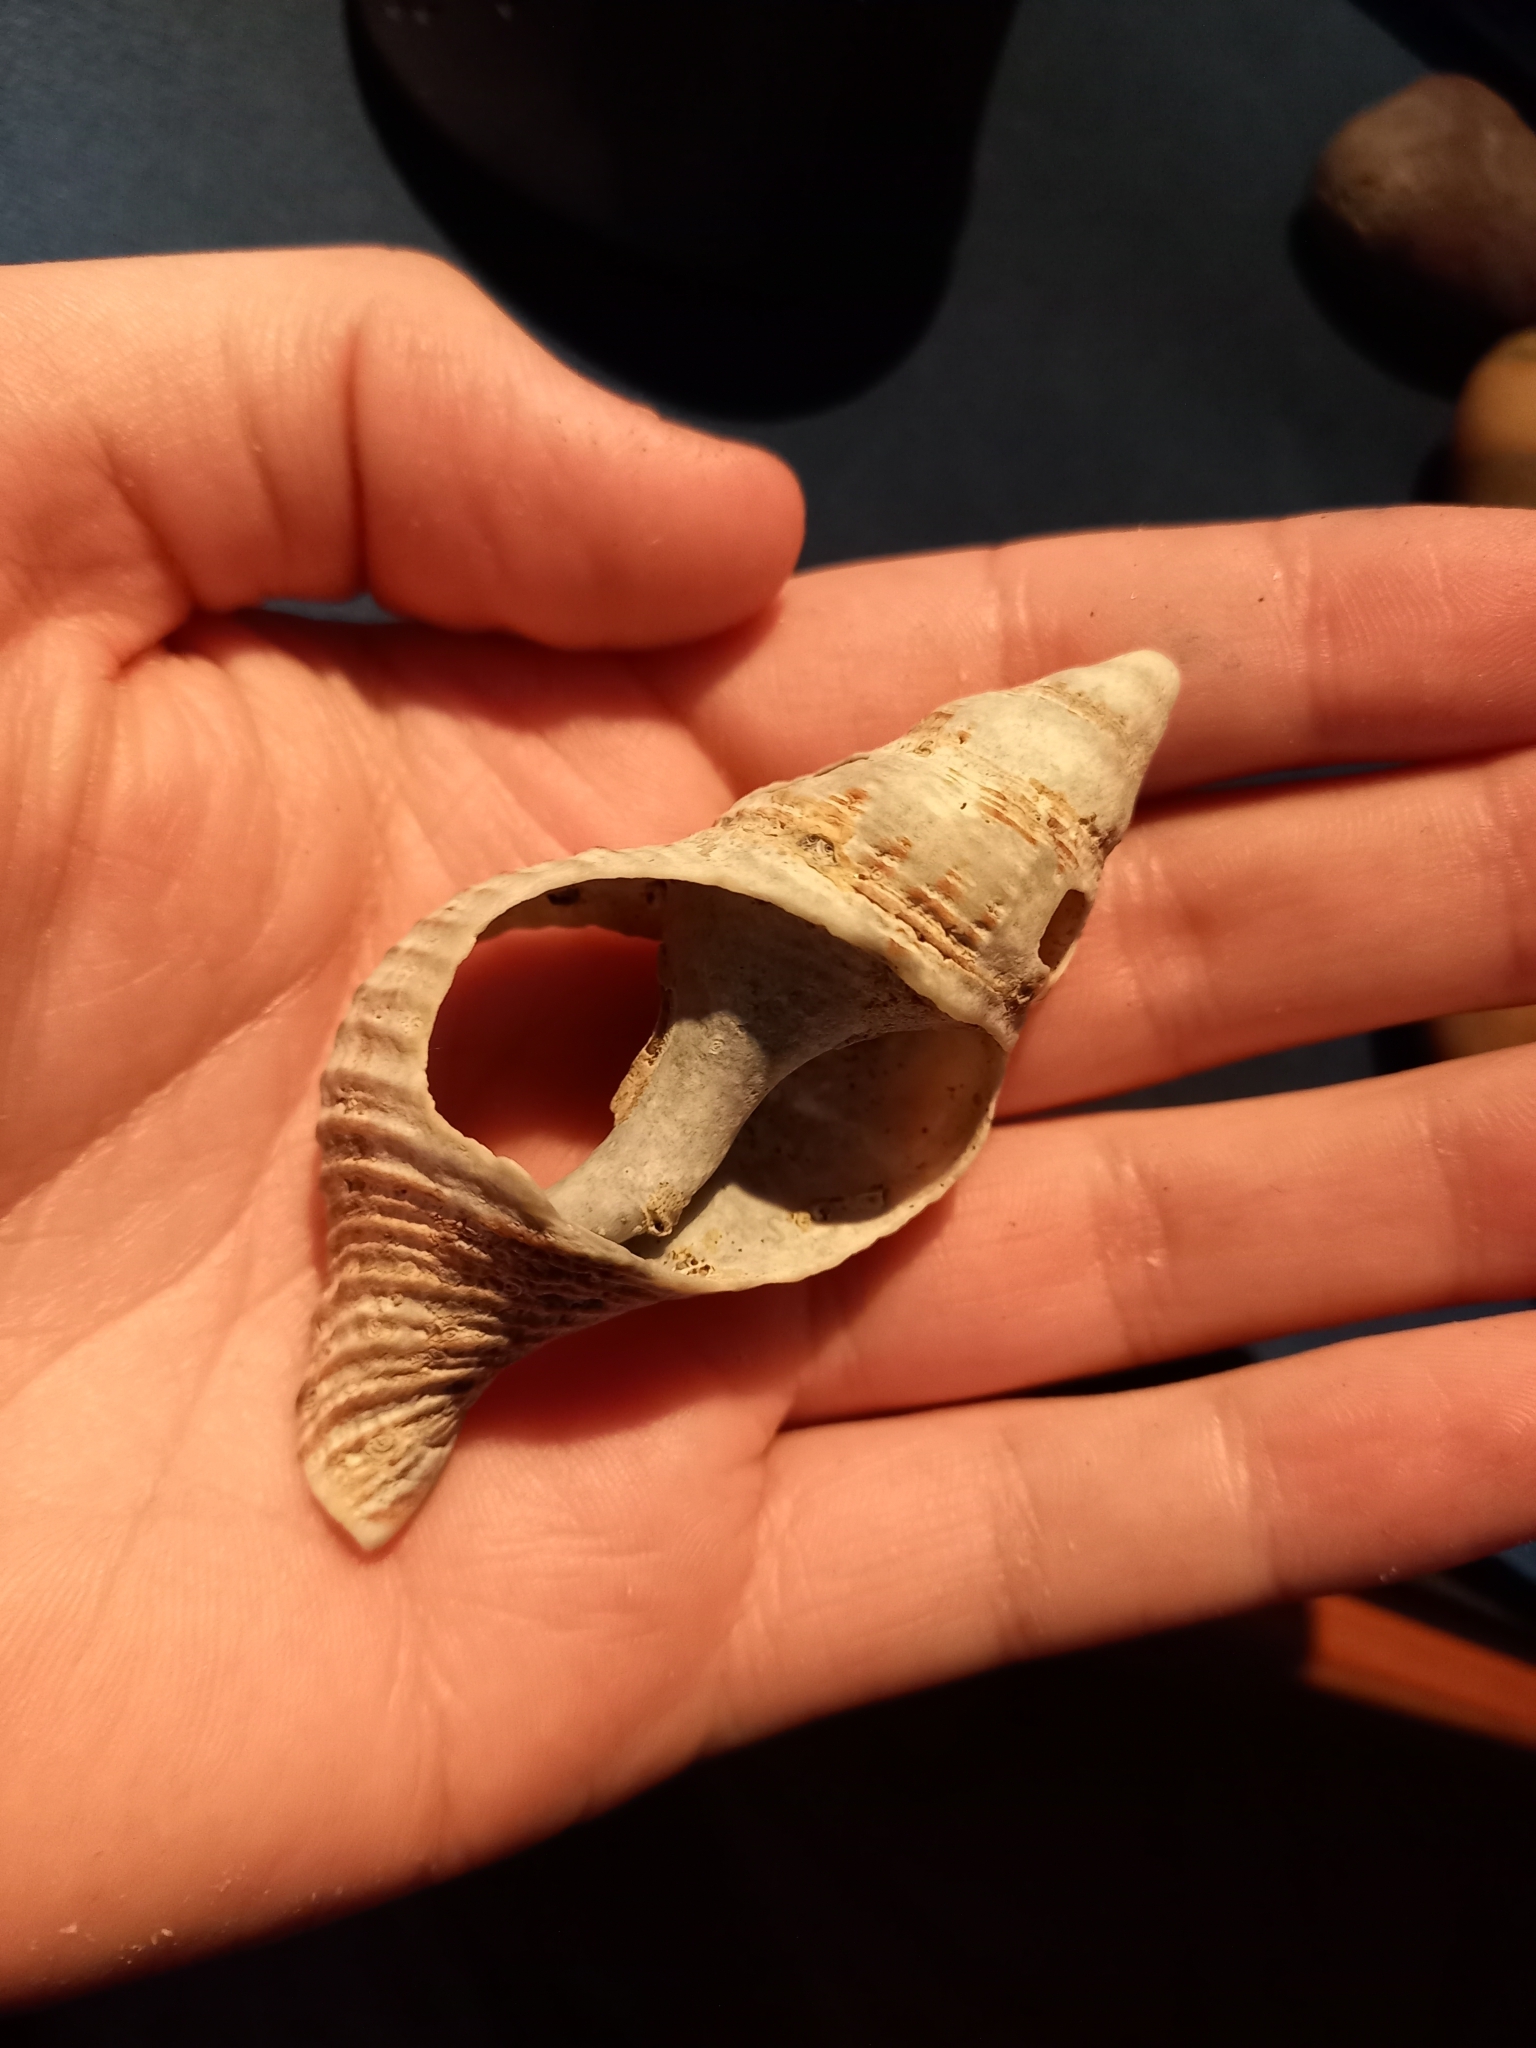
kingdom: Animalia
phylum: Mollusca
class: Gastropoda
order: Neogastropoda
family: Austrosiphonidae
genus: Penion
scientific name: Penion sulcatus
